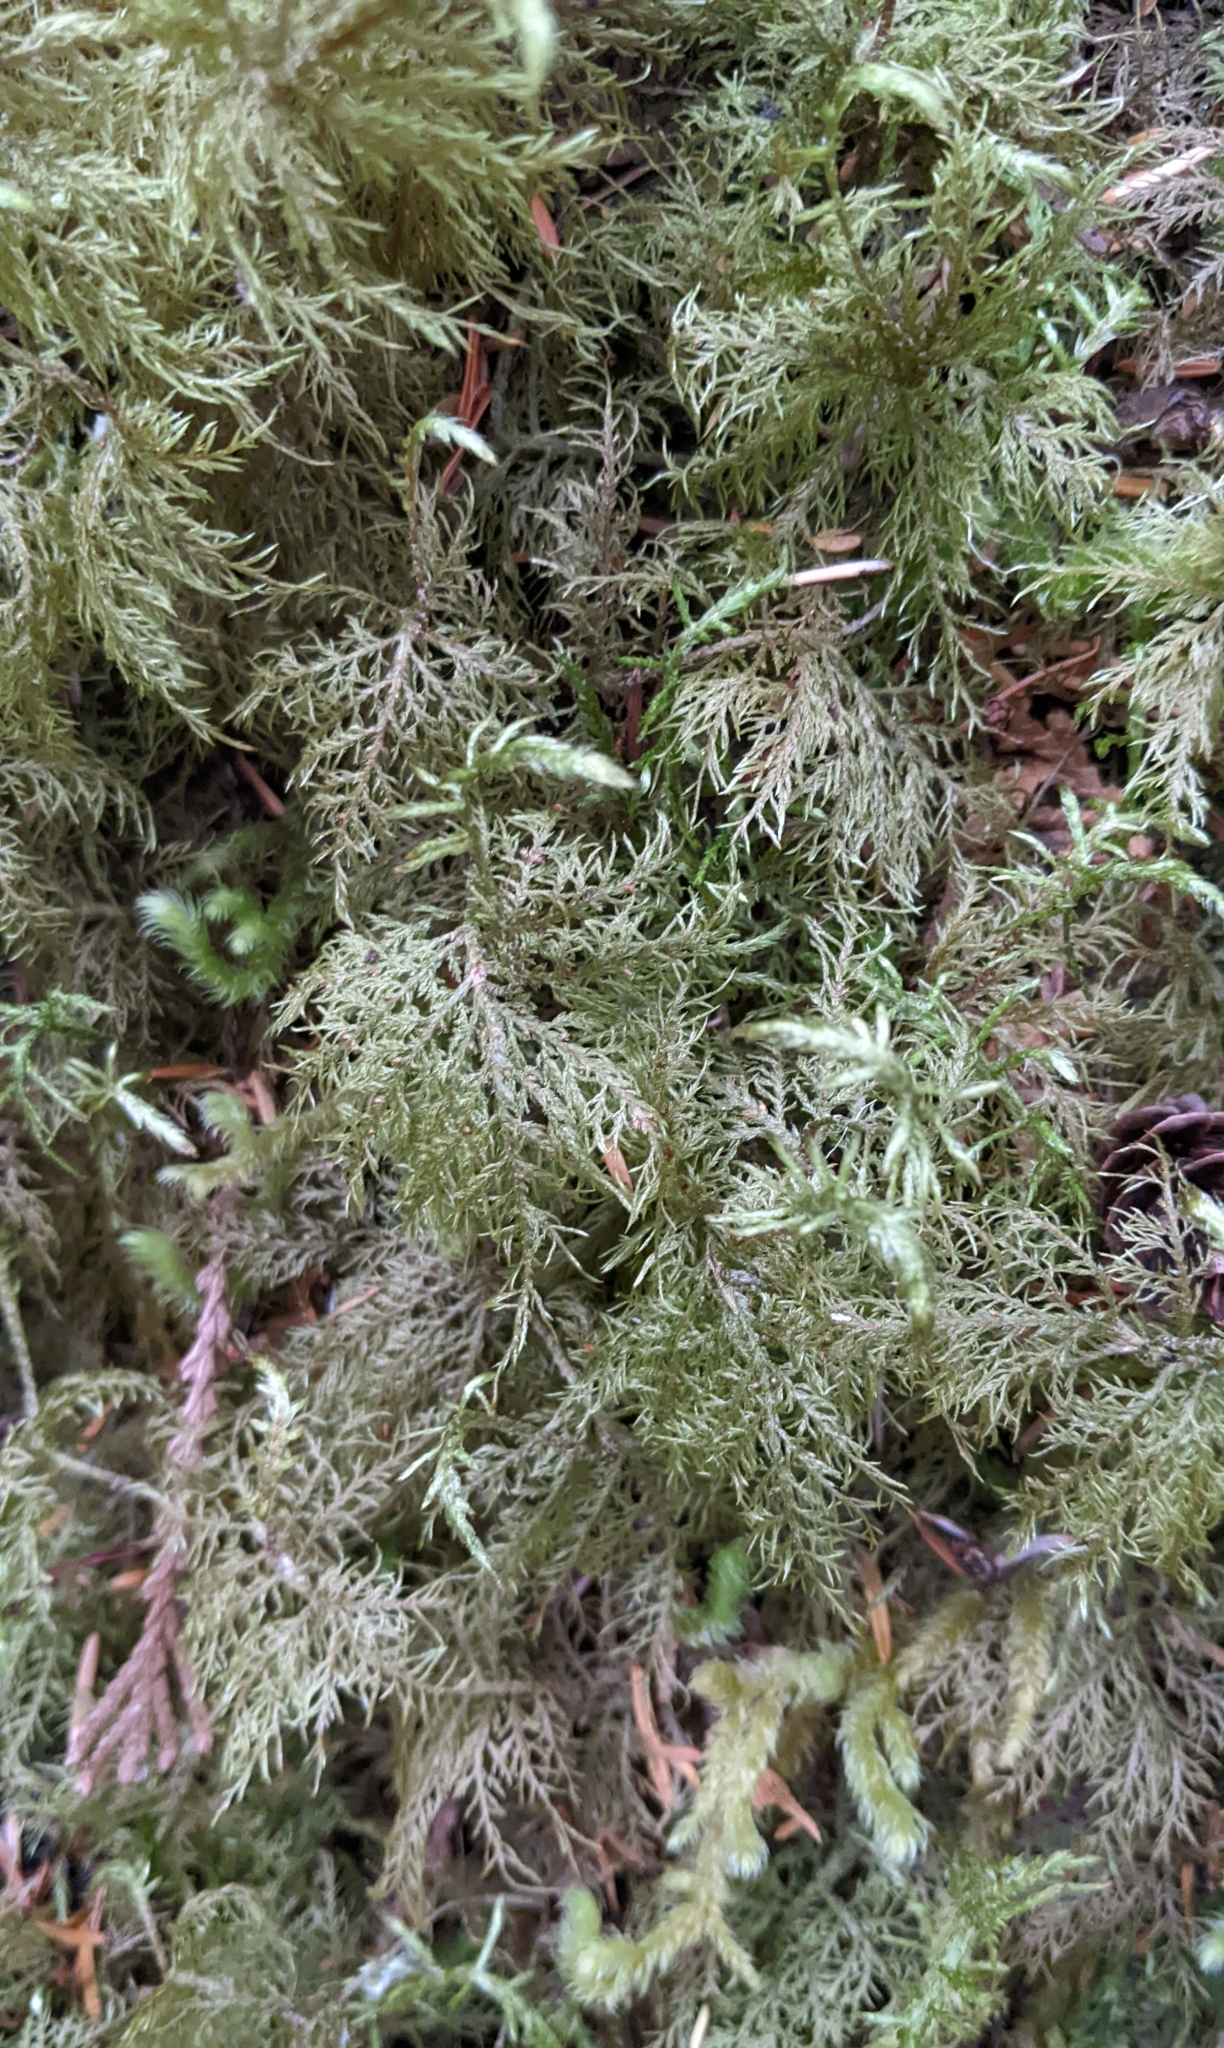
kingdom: Plantae
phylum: Bryophyta
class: Bryopsida
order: Hypnales
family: Hylocomiaceae
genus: Hylocomium
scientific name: Hylocomium splendens
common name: Stairstep moss
